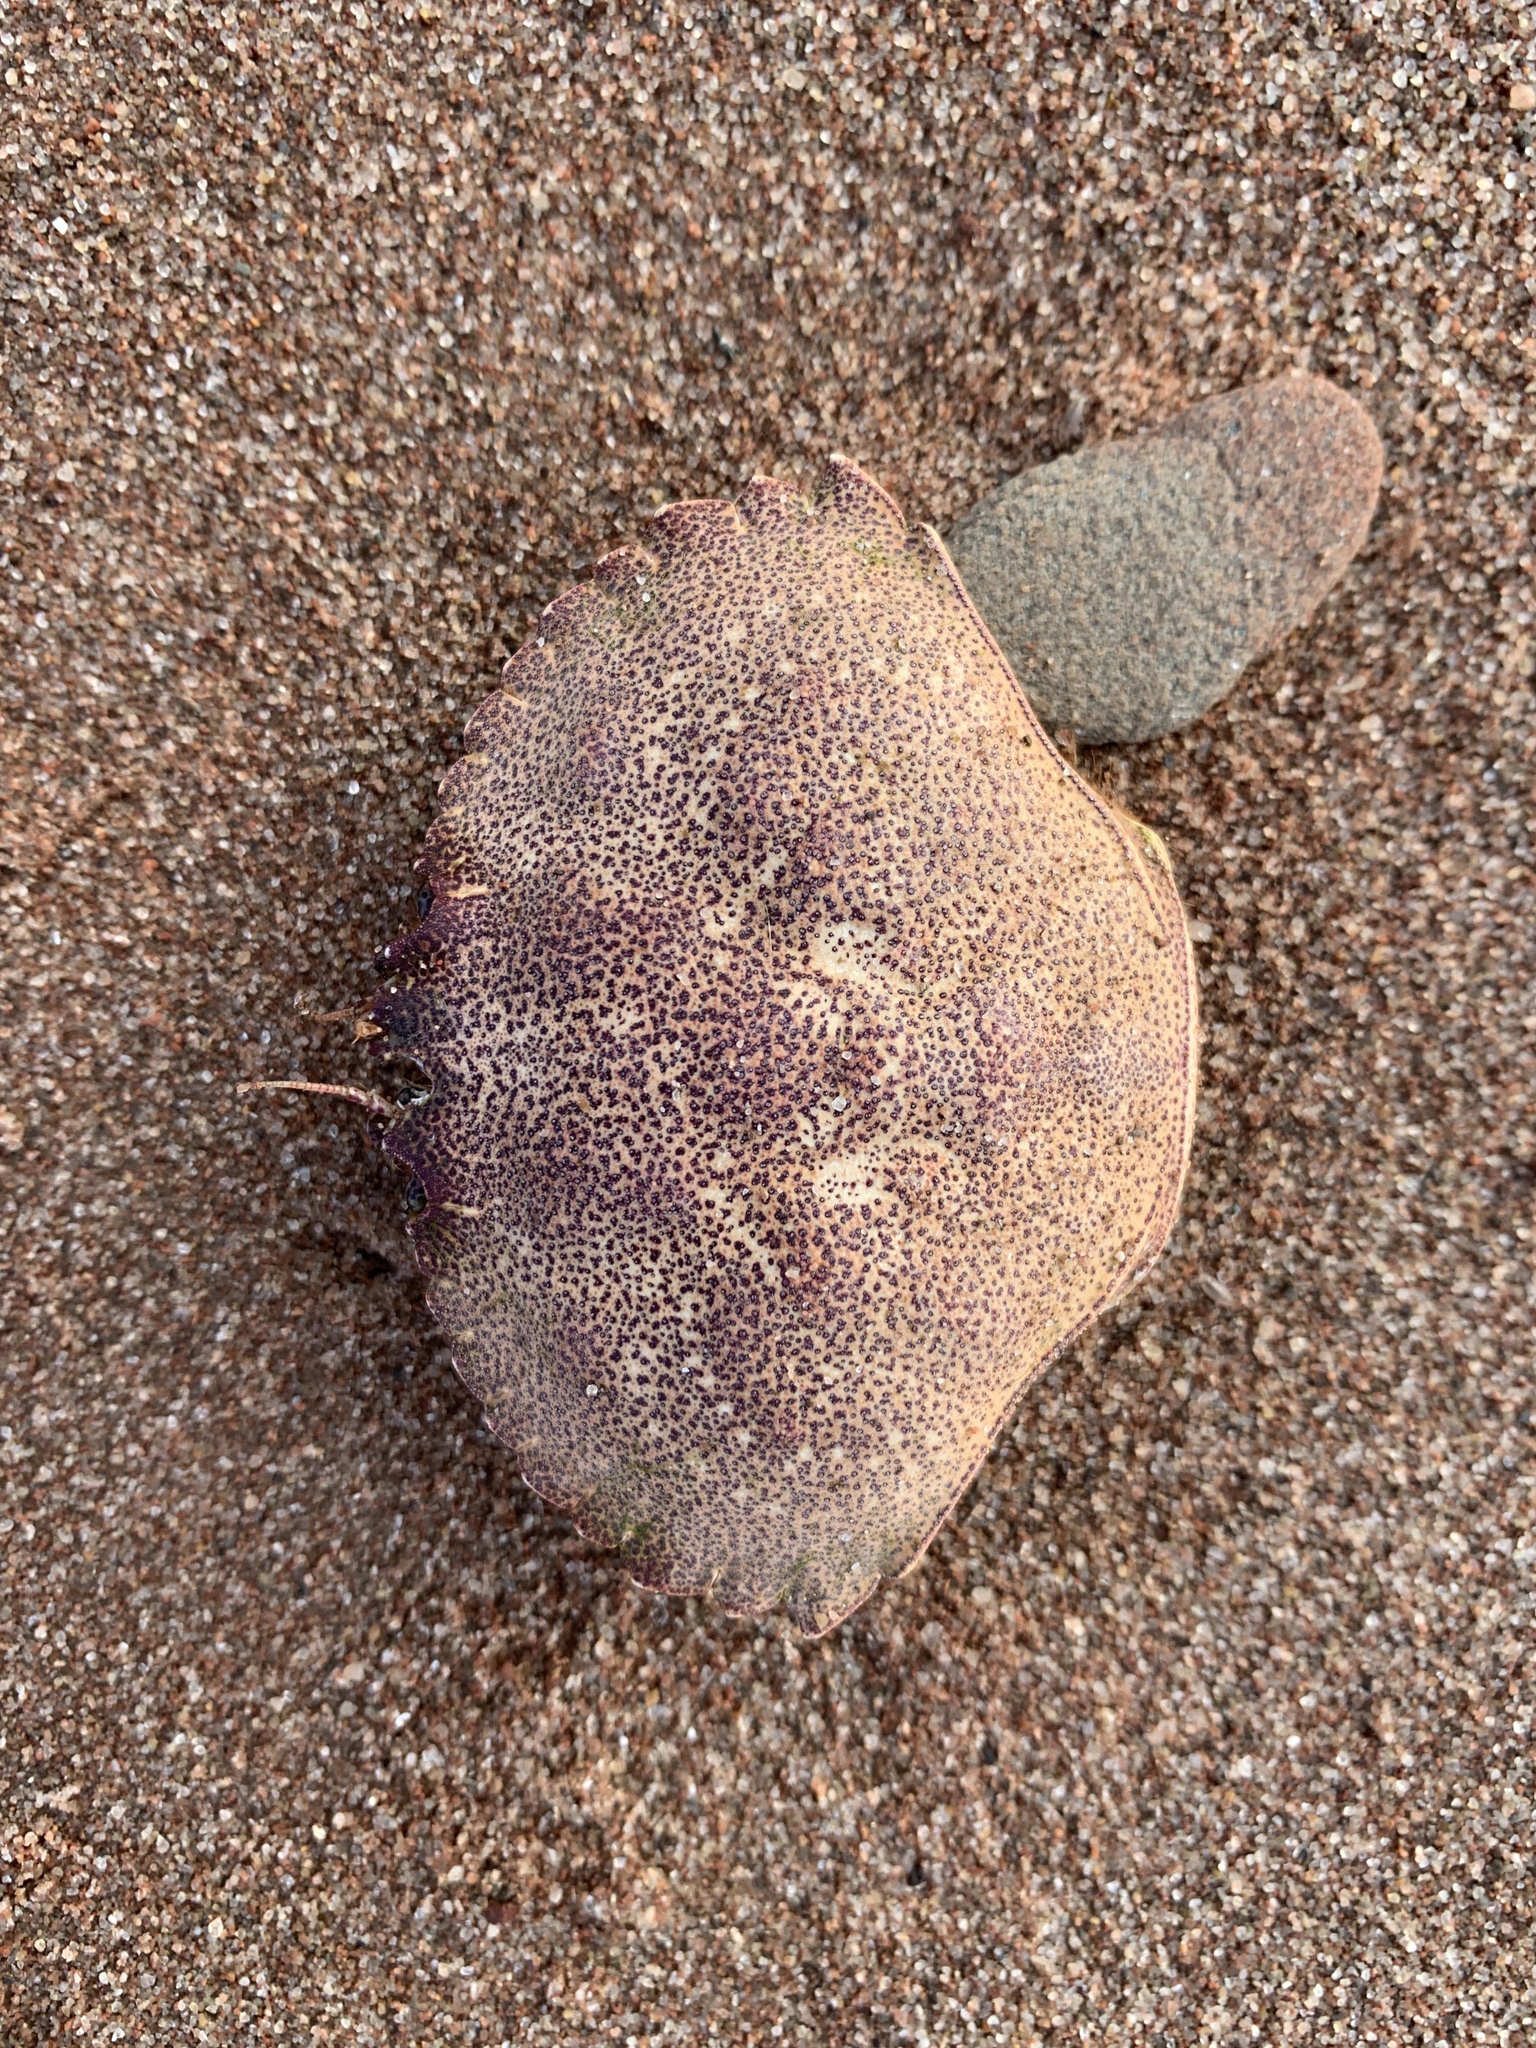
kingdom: Animalia
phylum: Arthropoda
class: Malacostraca
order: Decapoda
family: Cancridae
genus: Cancer
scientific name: Cancer irroratus
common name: Atlantic rock crab
